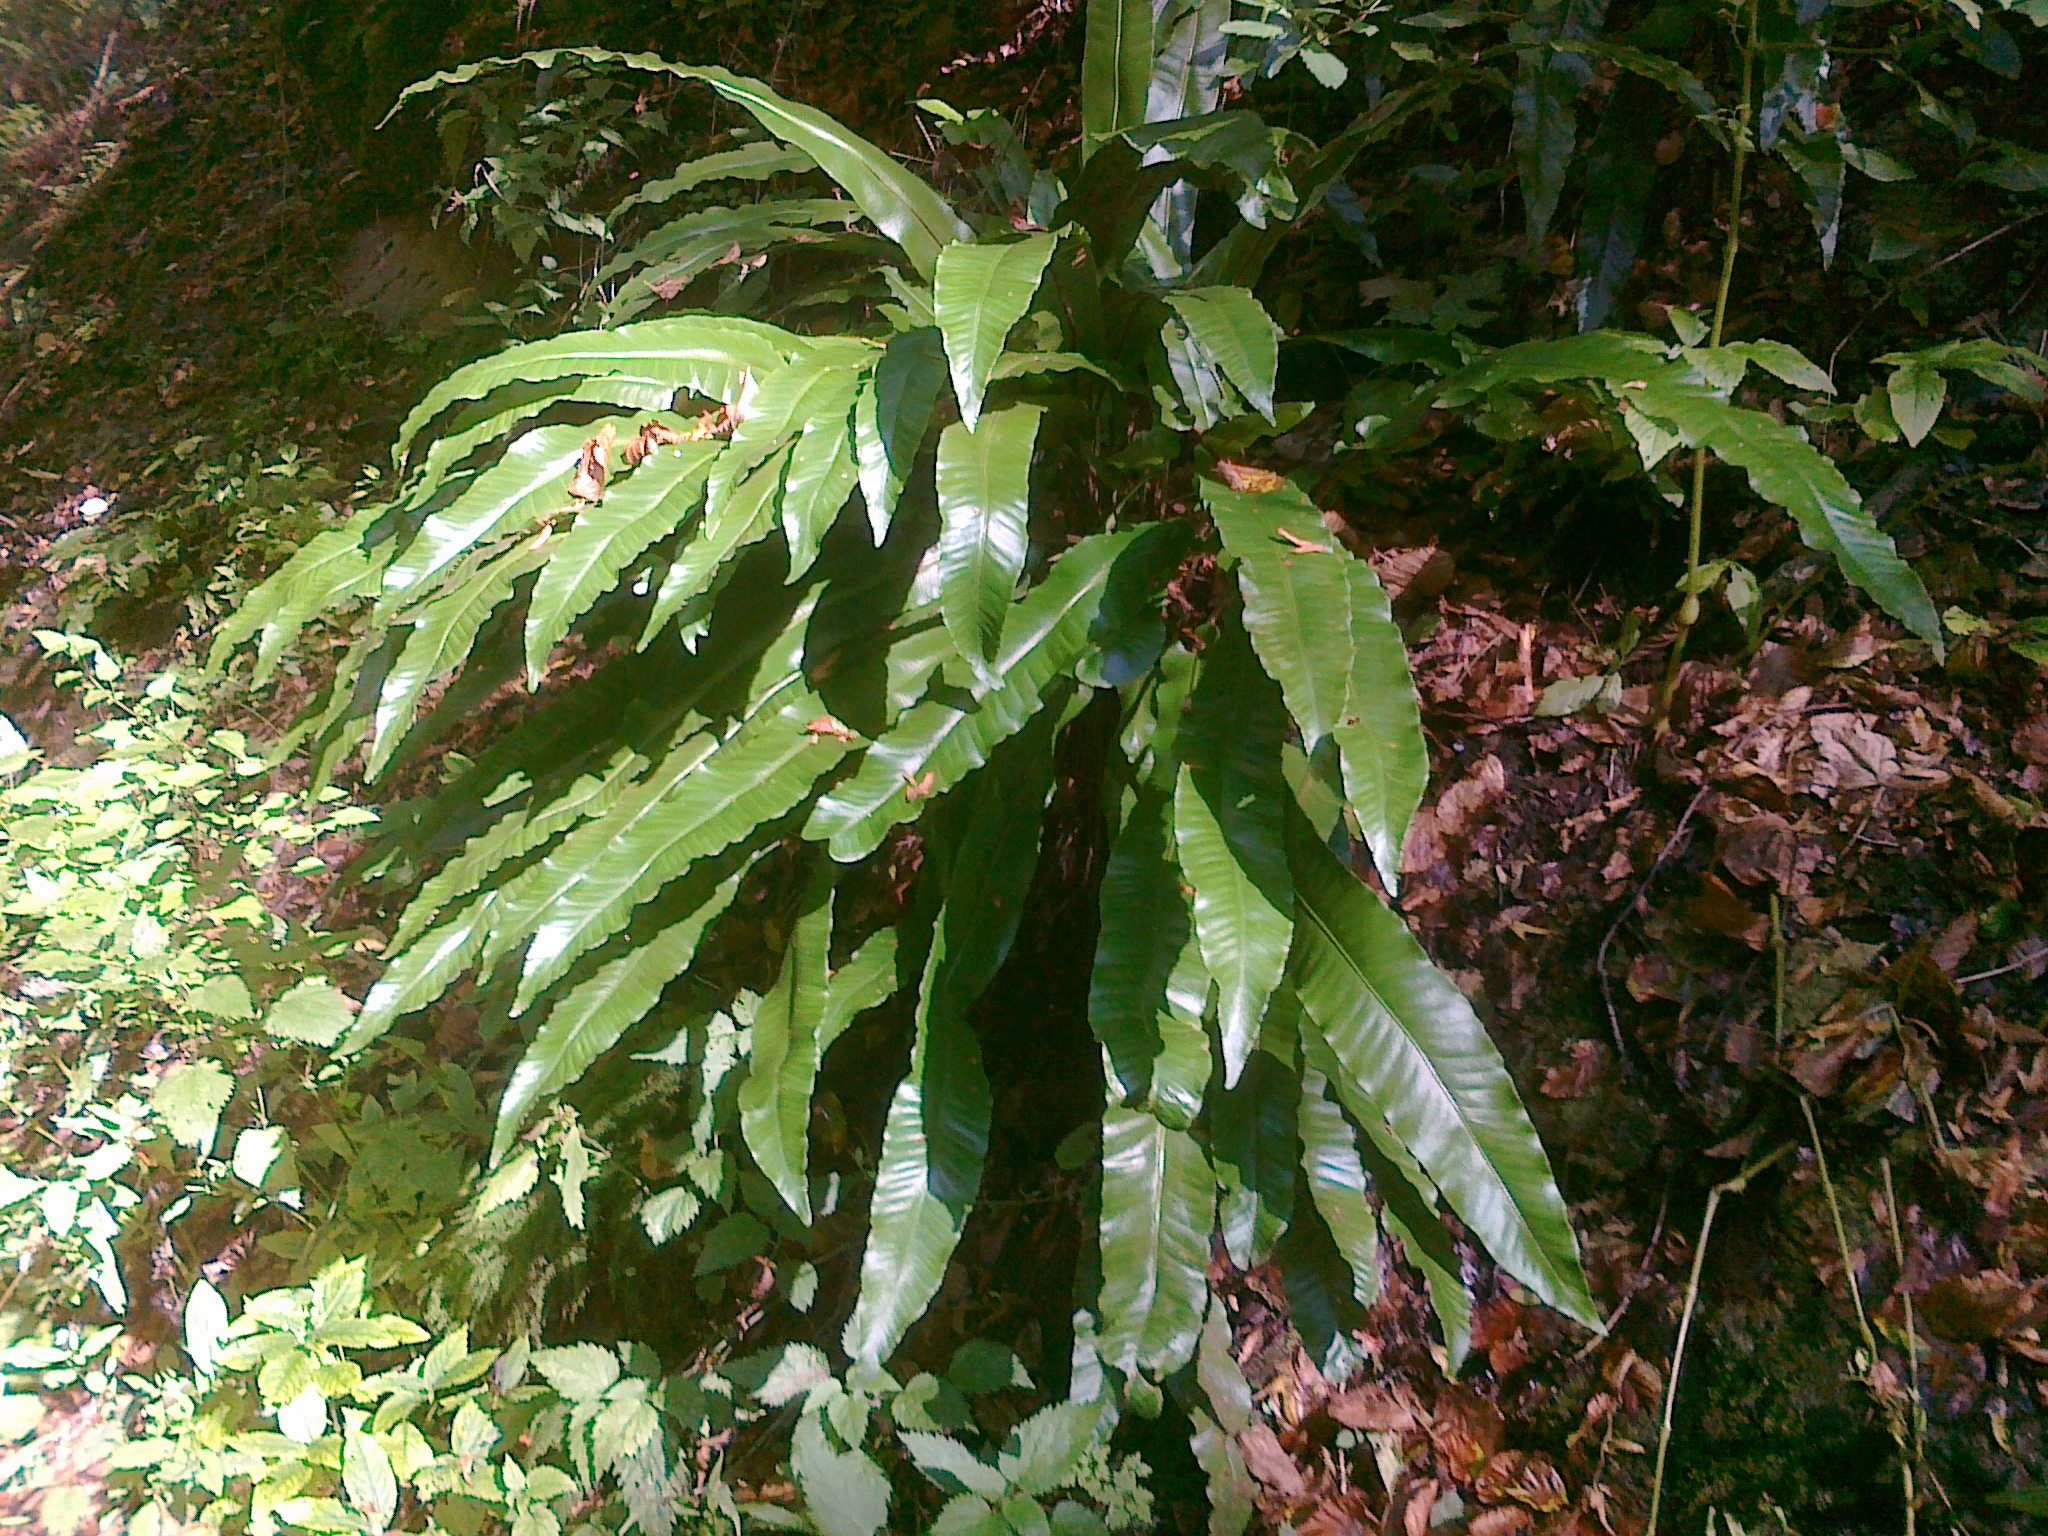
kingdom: Plantae
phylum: Tracheophyta
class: Polypodiopsida
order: Polypodiales
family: Aspleniaceae
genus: Asplenium
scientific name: Asplenium scolopendrium
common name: Hart's-tongue fern
